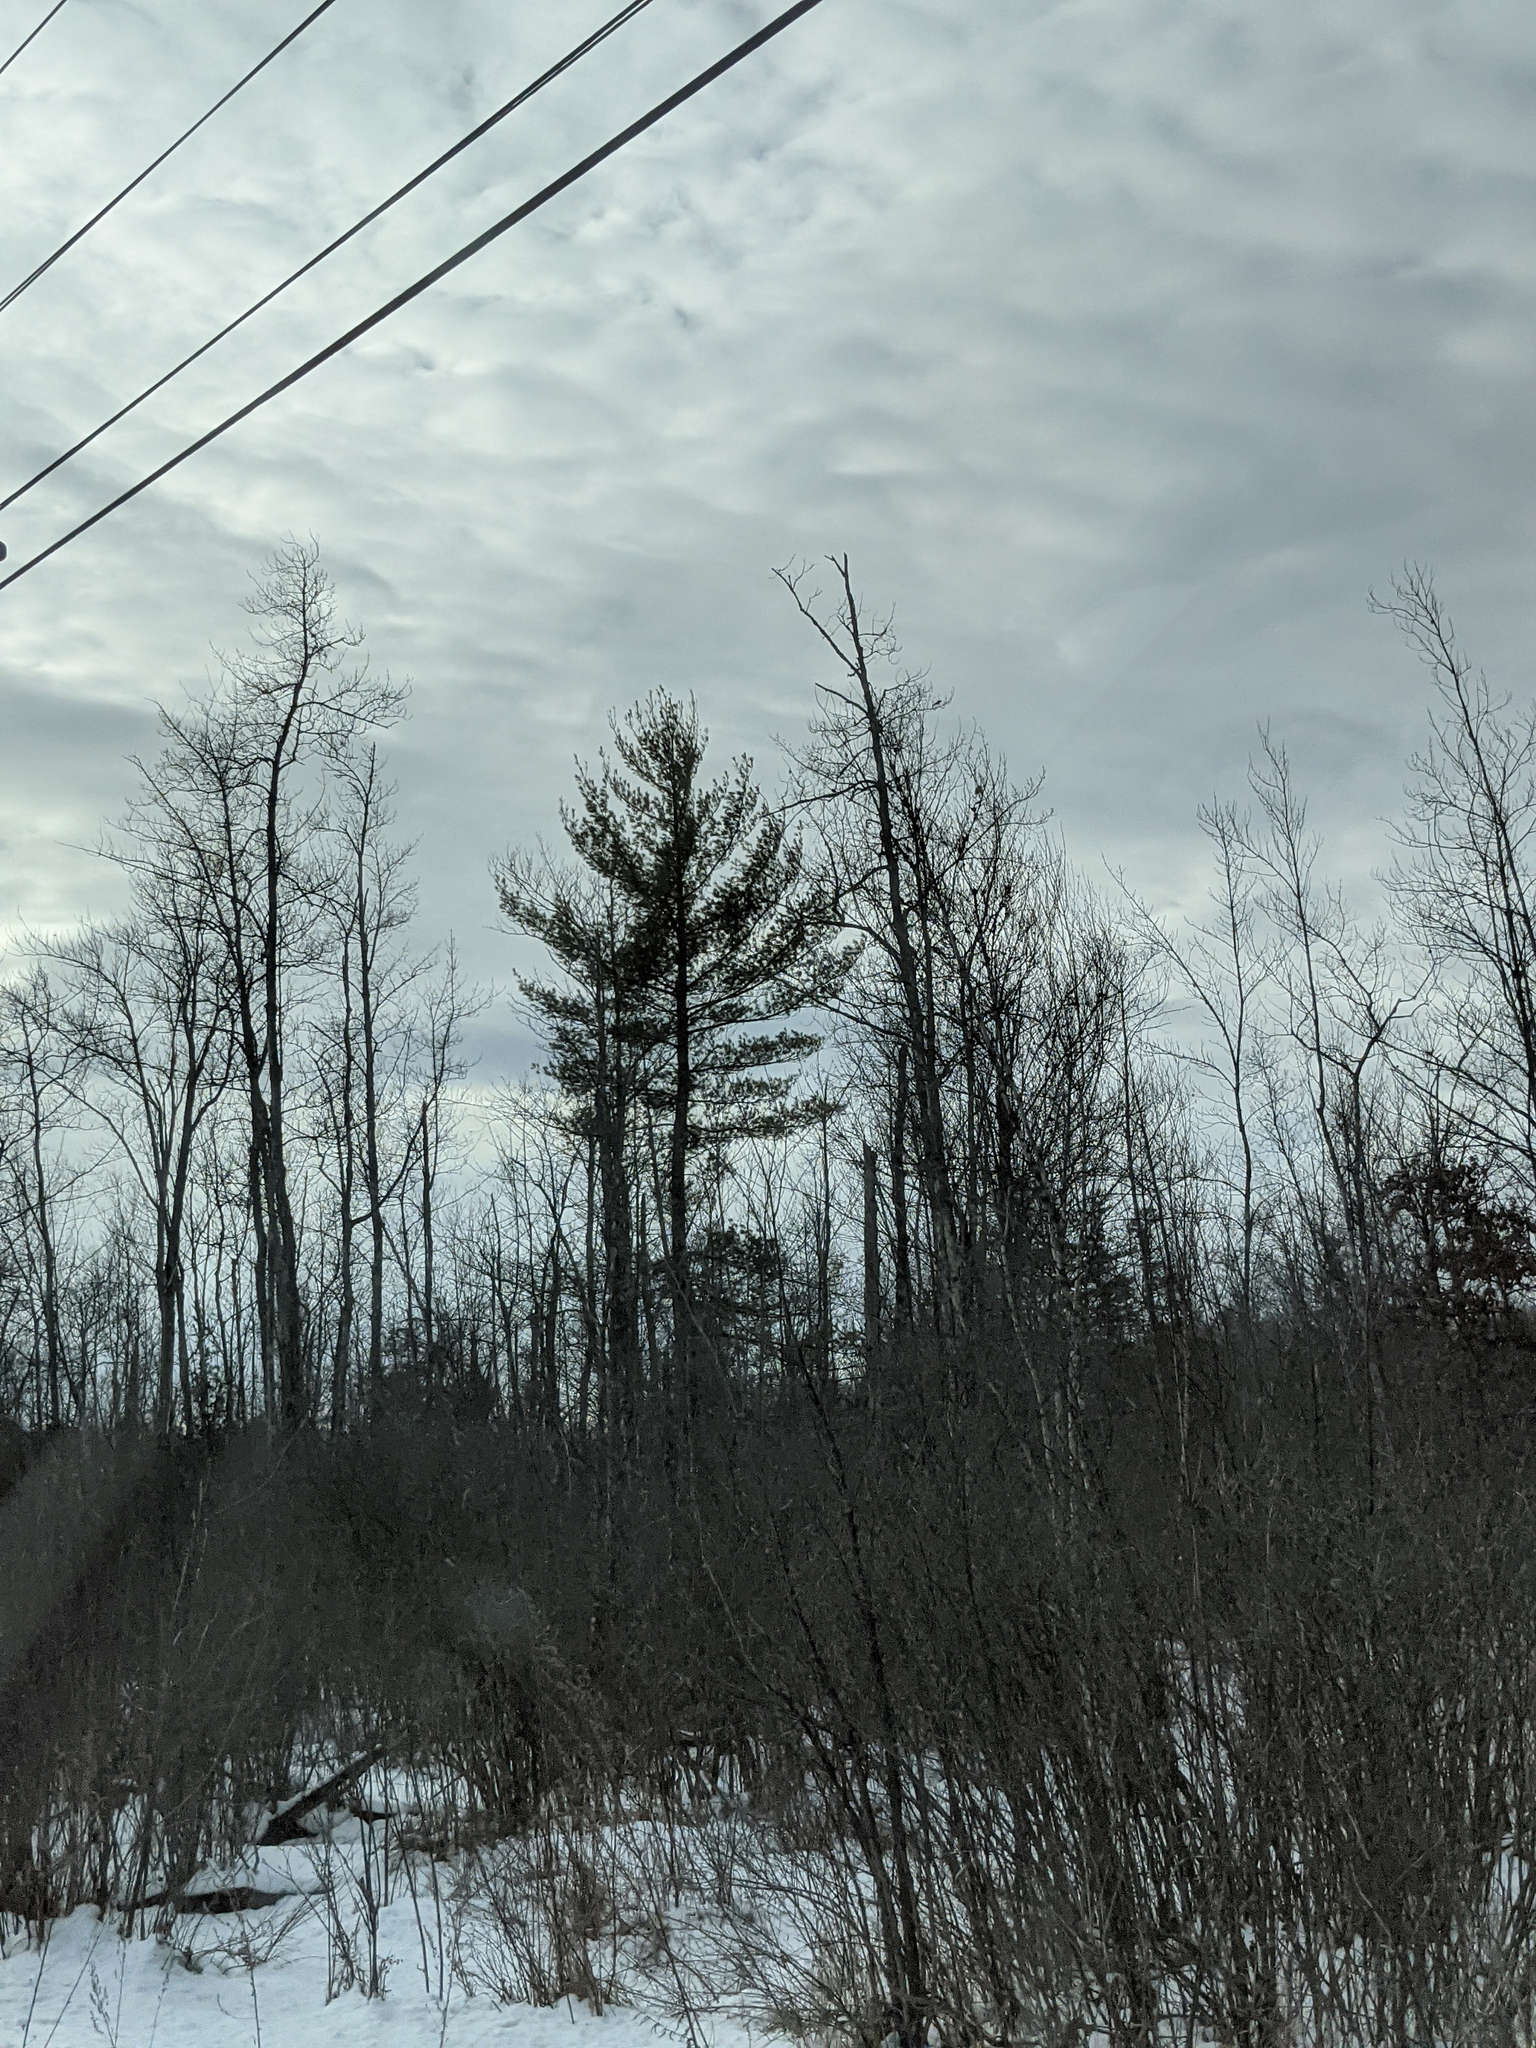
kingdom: Plantae
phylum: Tracheophyta
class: Pinopsida
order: Pinales
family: Pinaceae
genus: Pinus
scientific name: Pinus strobus
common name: Weymouth pine
